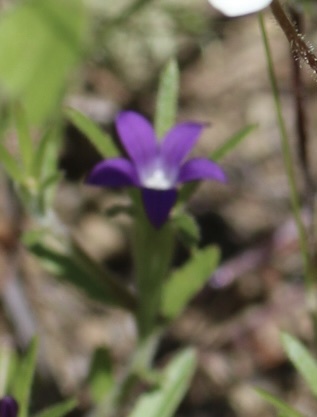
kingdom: Plantae
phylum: Tracheophyta
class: Magnoliopsida
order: Asterales
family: Campanulaceae
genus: Githopsis
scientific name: Githopsis specularioides
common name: Common bluecup
